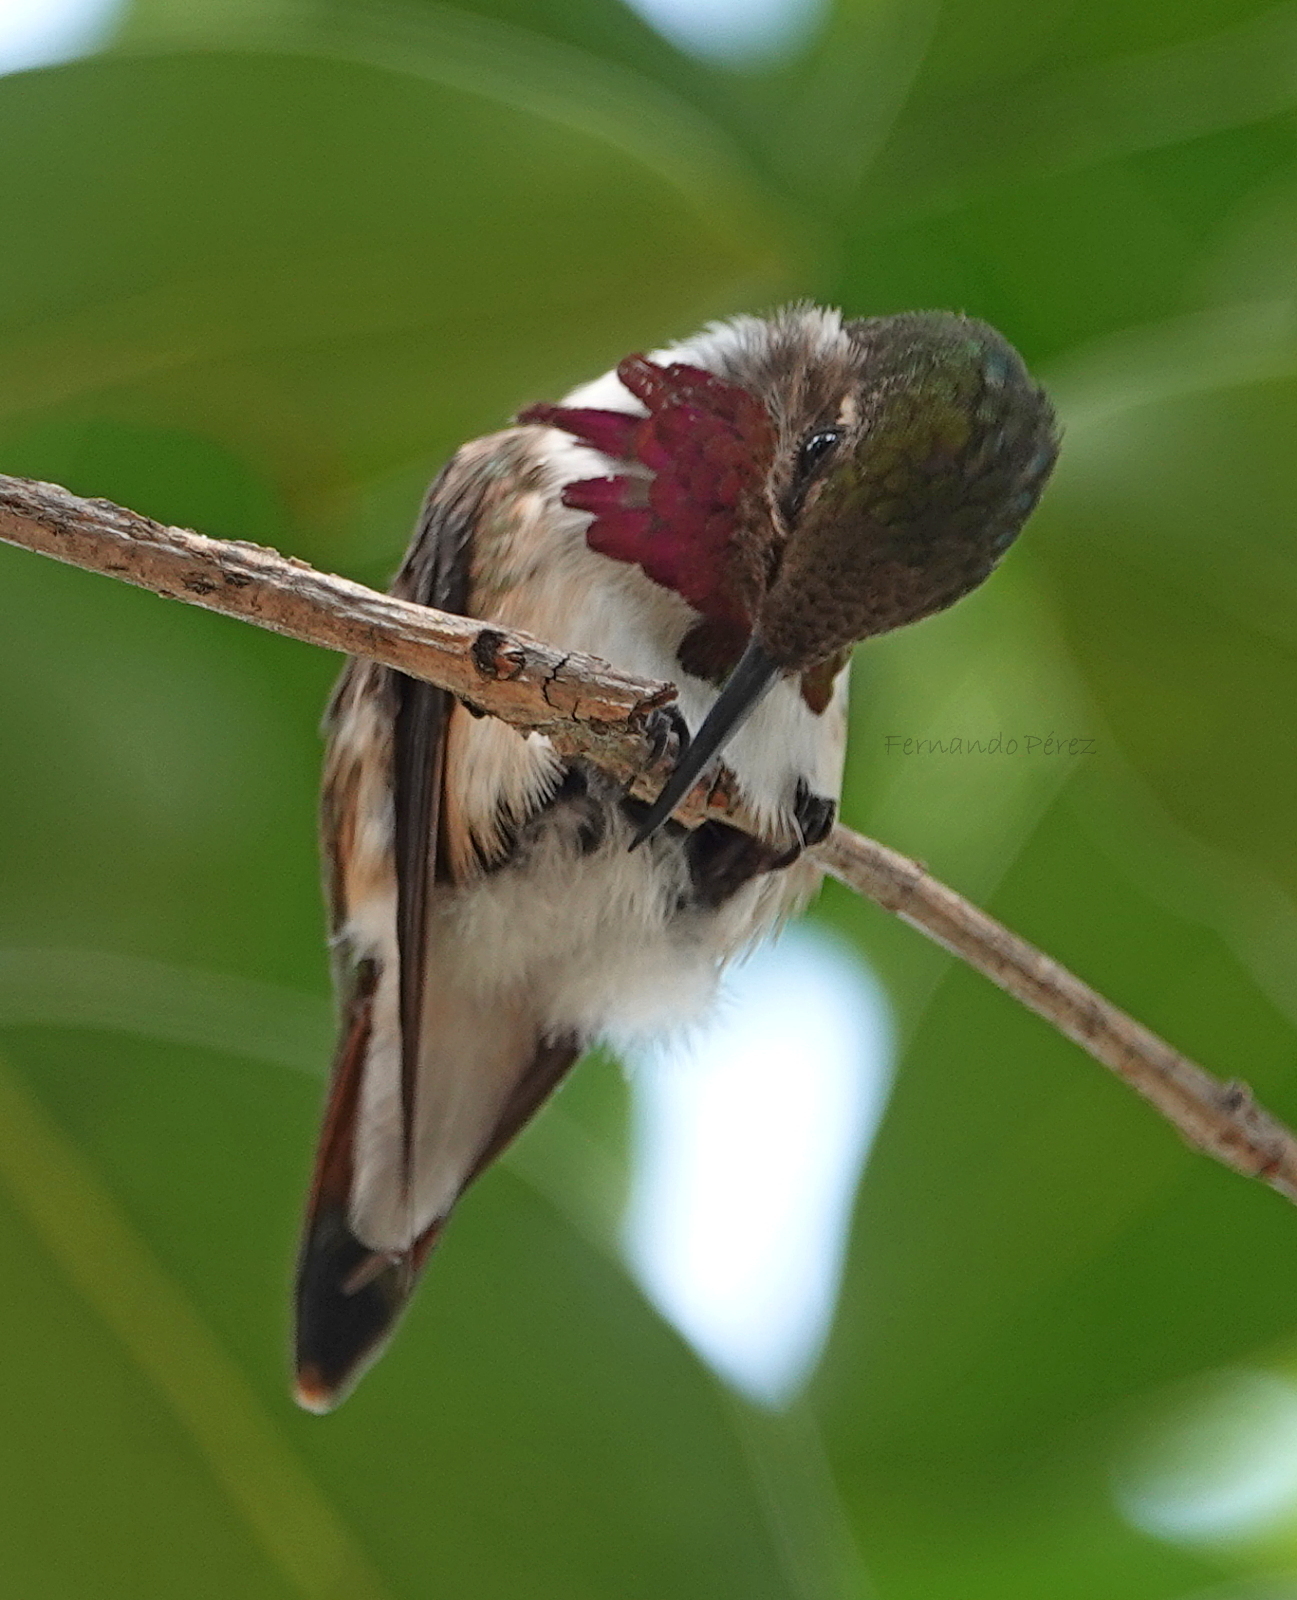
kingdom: Animalia
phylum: Chordata
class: Aves
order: Apodiformes
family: Trochilidae
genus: Selasphorus
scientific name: Selasphorus heloisa
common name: Bumblebee hummingbird
